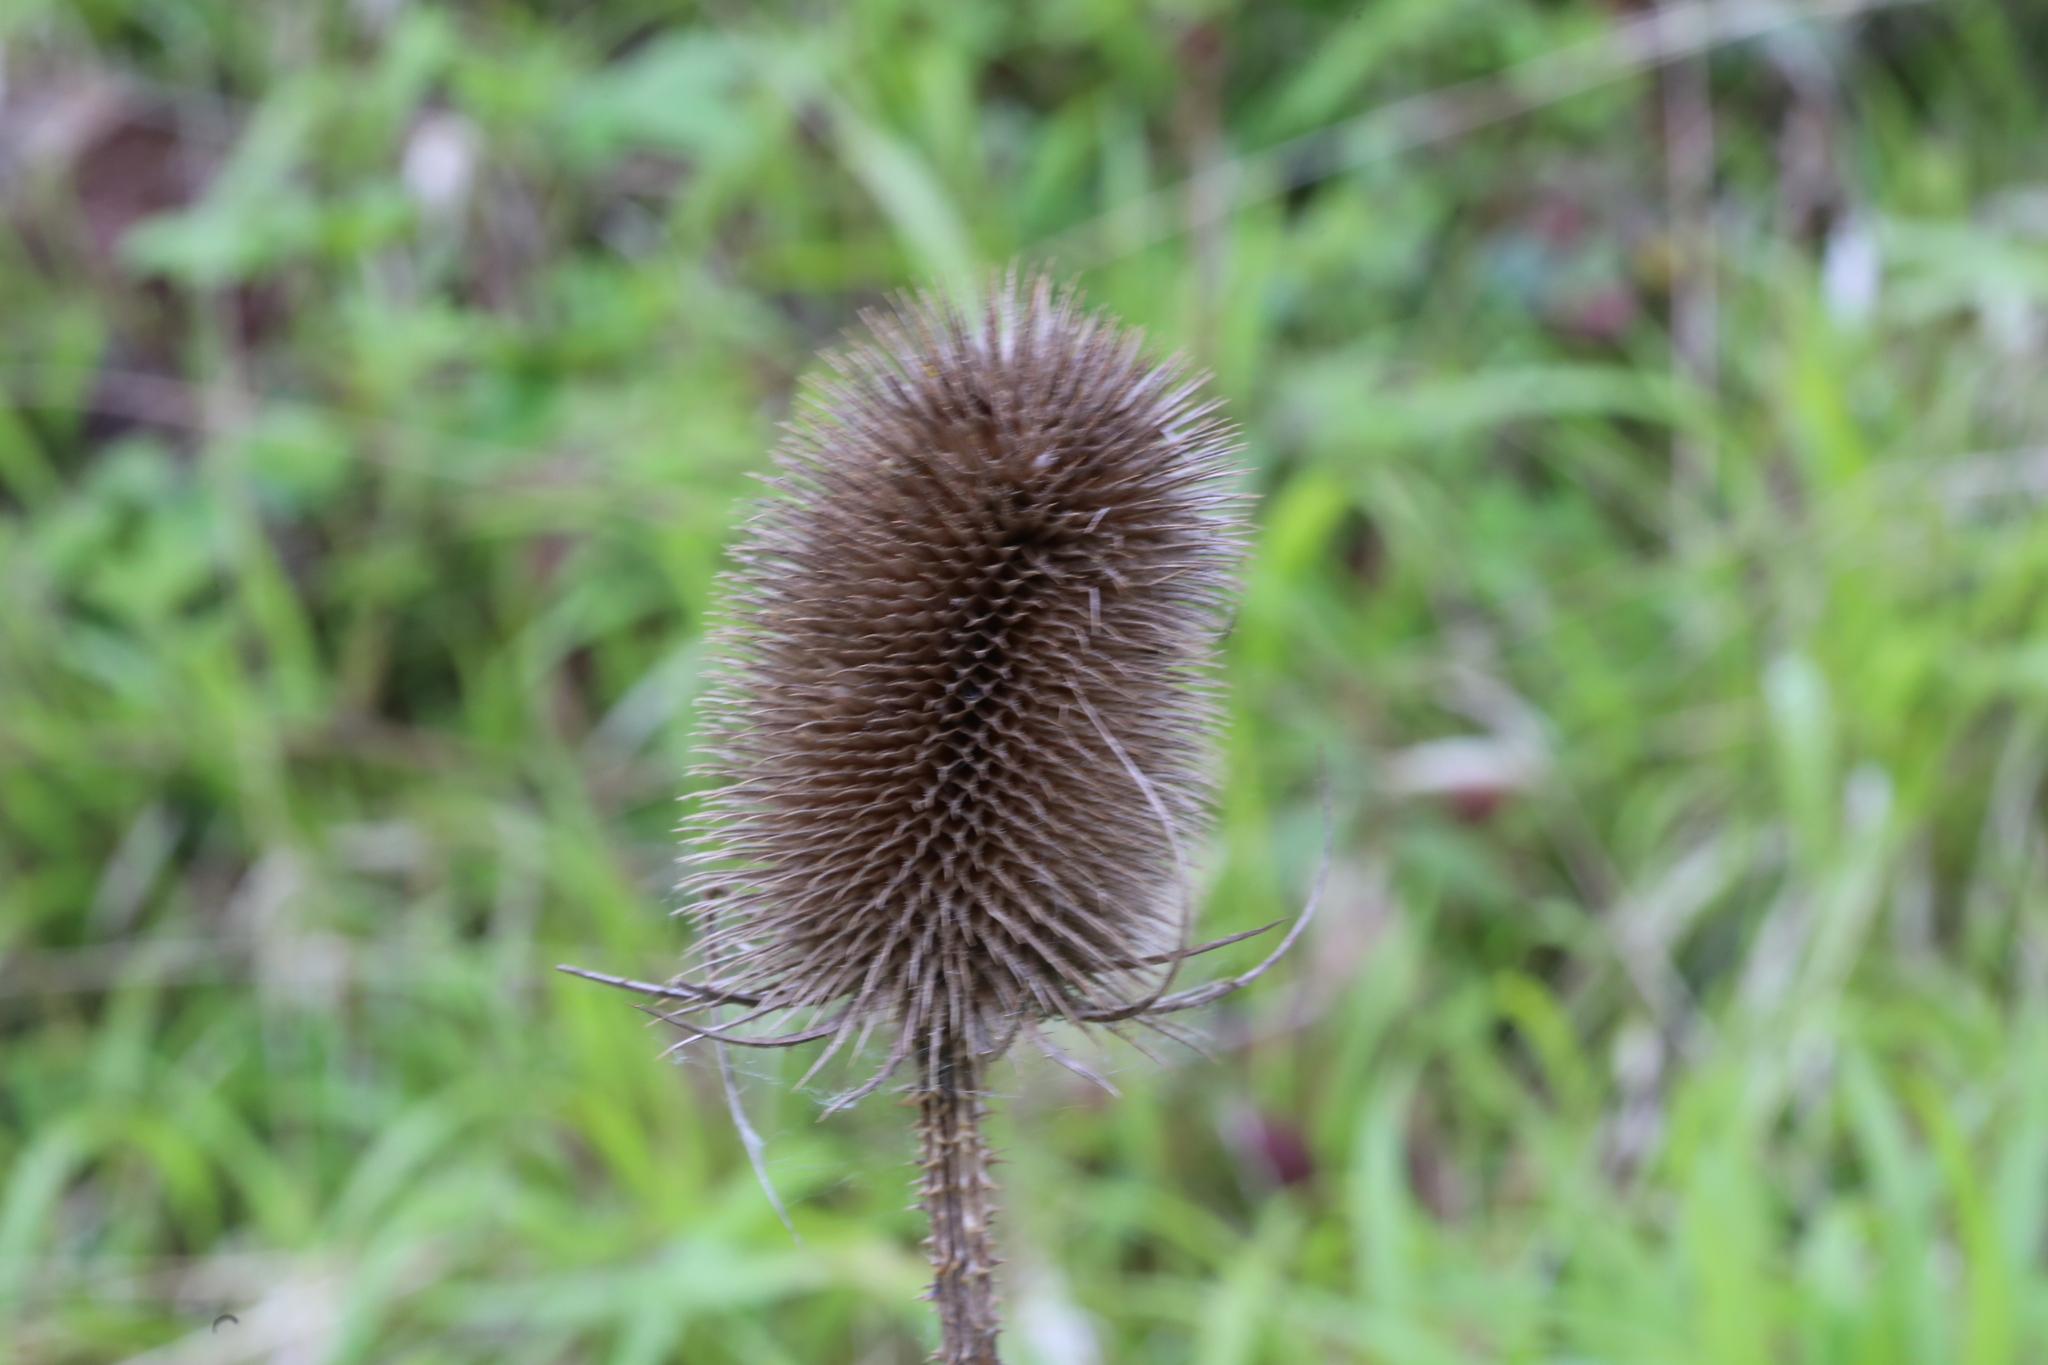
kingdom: Plantae
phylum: Tracheophyta
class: Magnoliopsida
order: Dipsacales
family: Caprifoliaceae
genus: Dipsacus
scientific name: Dipsacus fullonum
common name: Teasel
